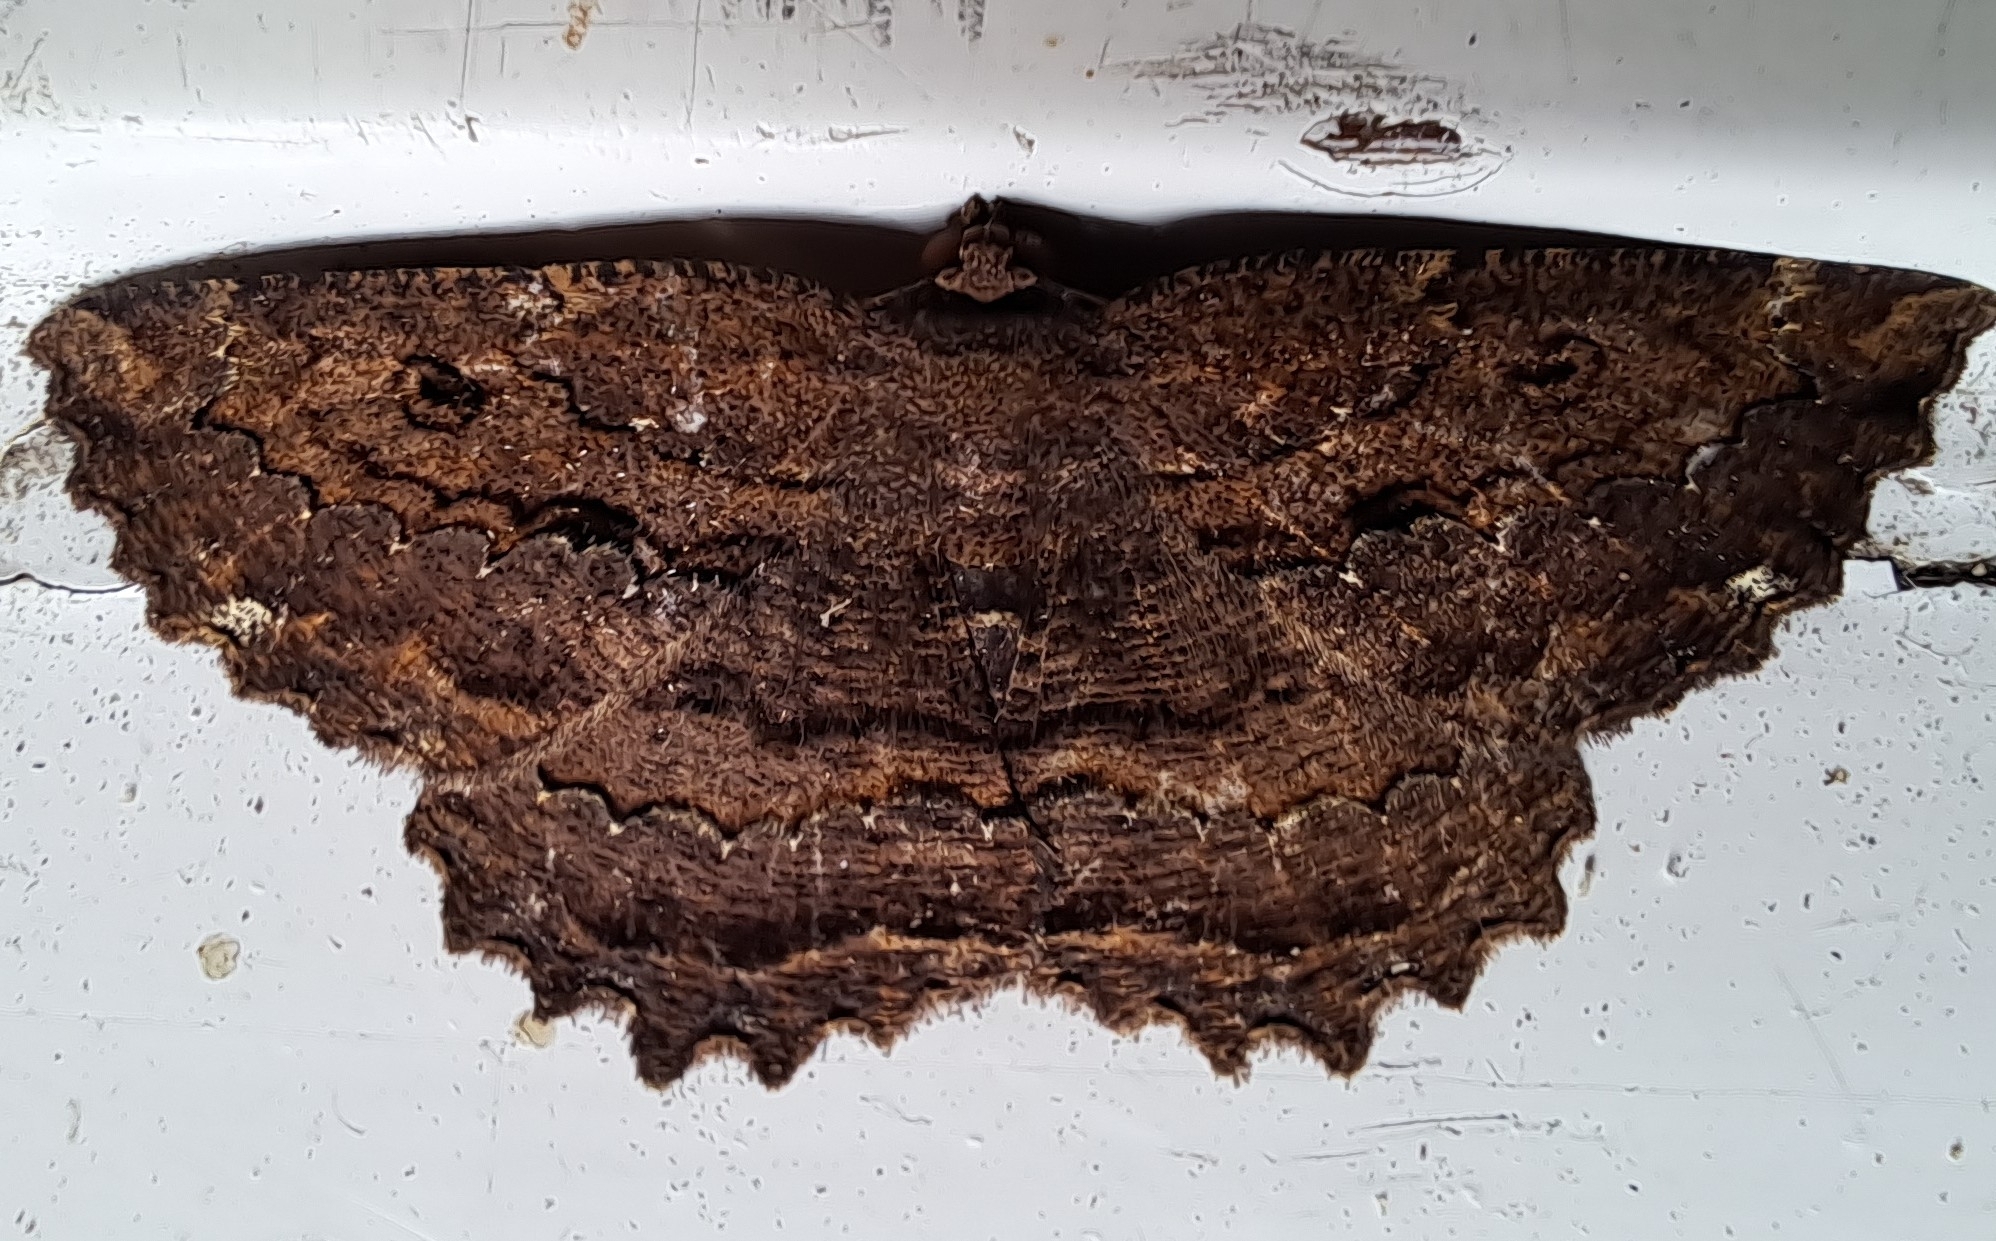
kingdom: Animalia
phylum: Arthropoda
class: Insecta
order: Lepidoptera
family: Geometridae
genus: Gellonia
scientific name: Gellonia pannularia
